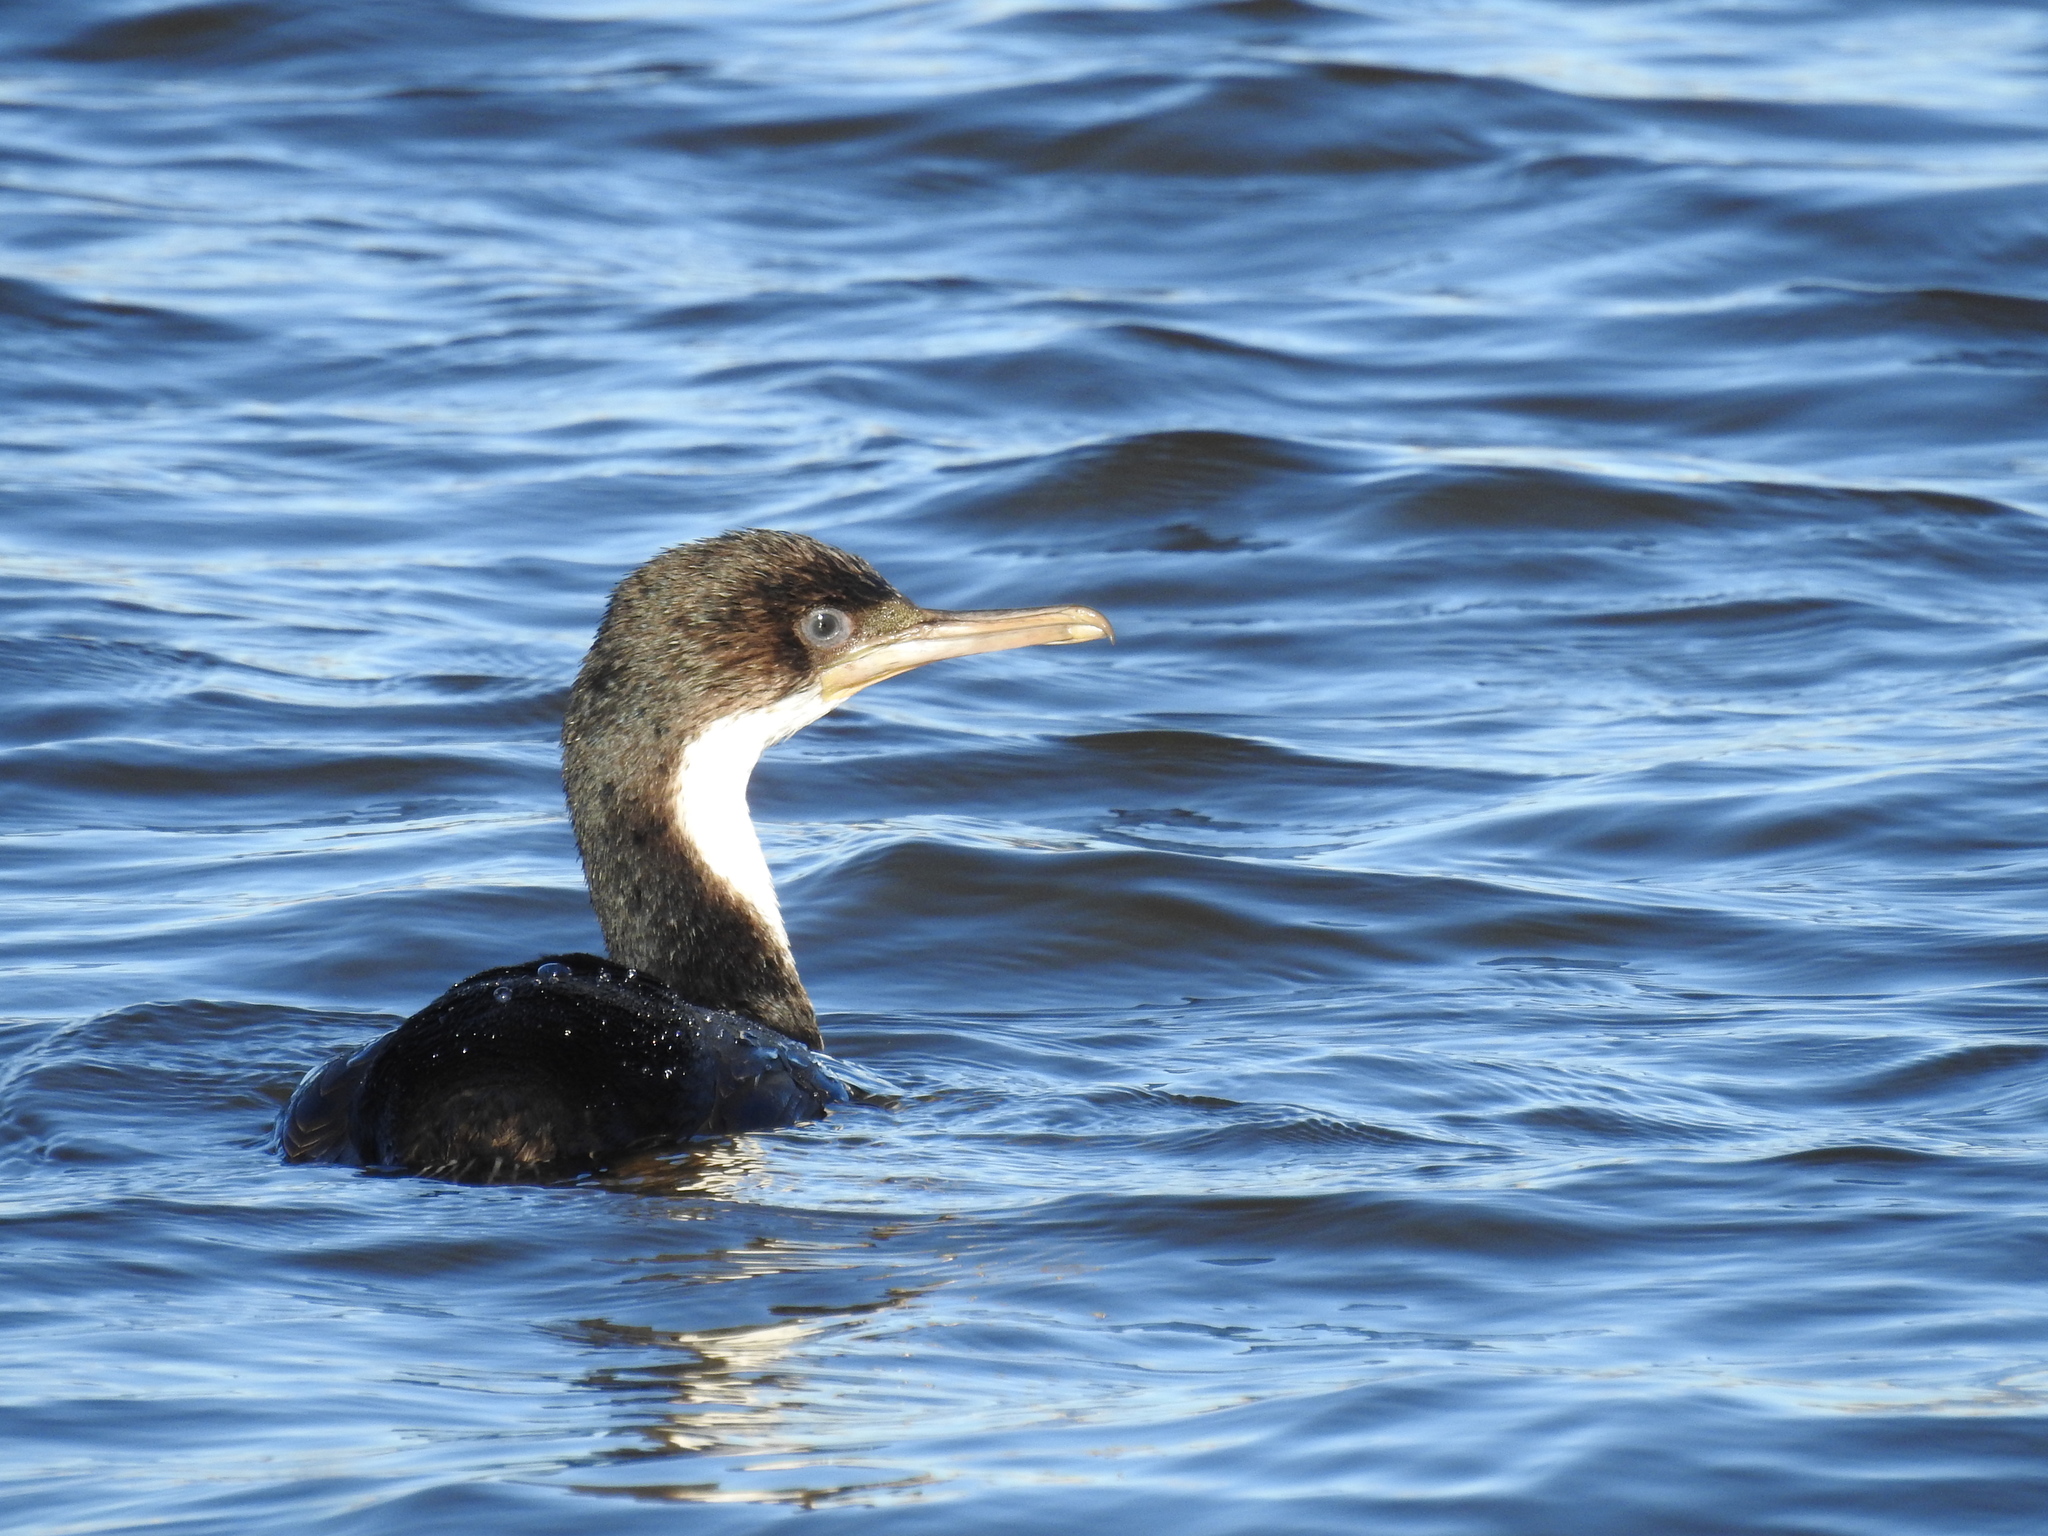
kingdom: Animalia
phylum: Chordata
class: Aves
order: Suliformes
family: Phalacrocoracidae
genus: Leucocarbo
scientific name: Leucocarbo atriceps
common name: Imperial shag
